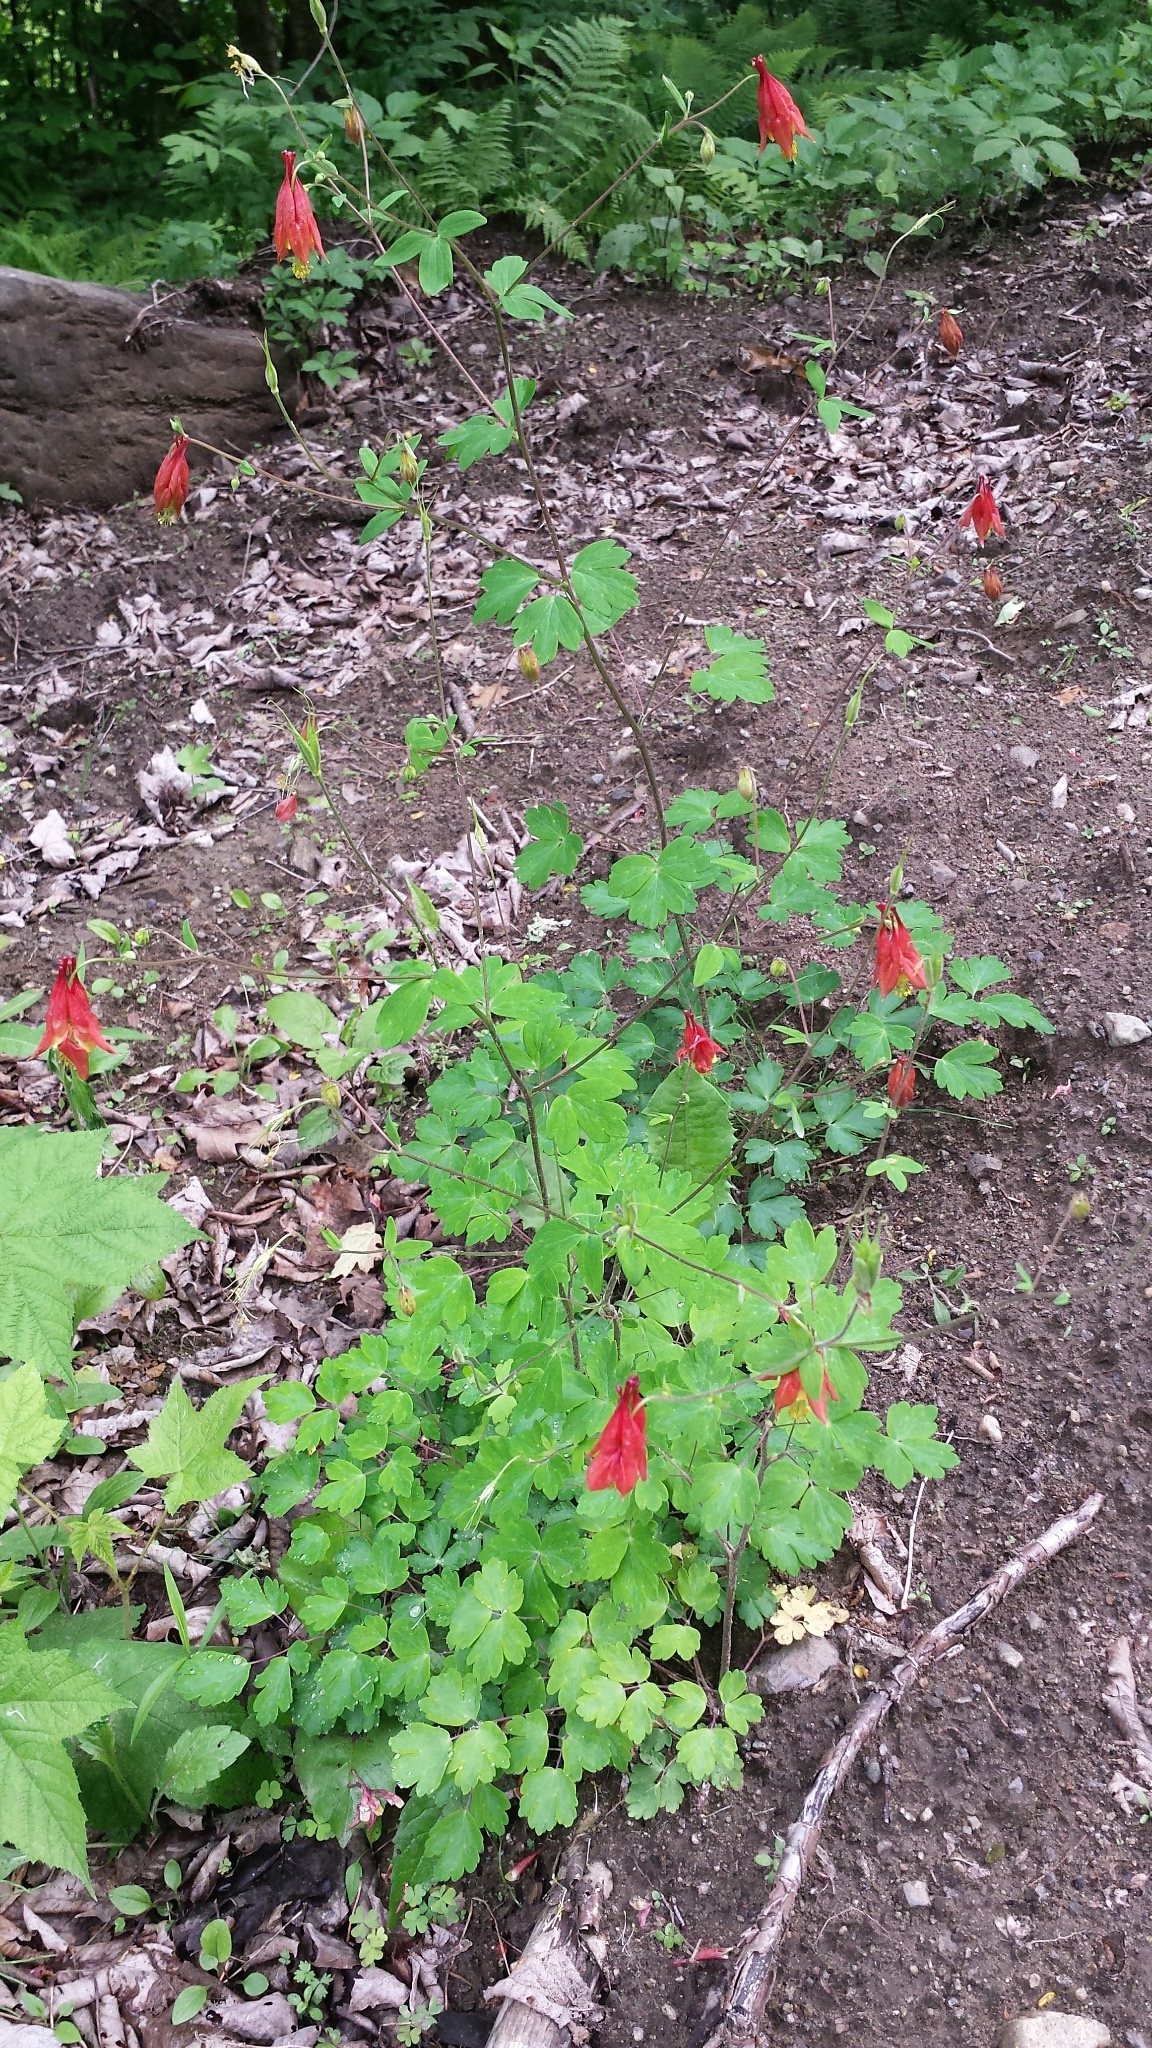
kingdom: Plantae
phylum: Tracheophyta
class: Magnoliopsida
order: Ranunculales
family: Ranunculaceae
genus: Aquilegia
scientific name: Aquilegia canadensis
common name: American columbine
